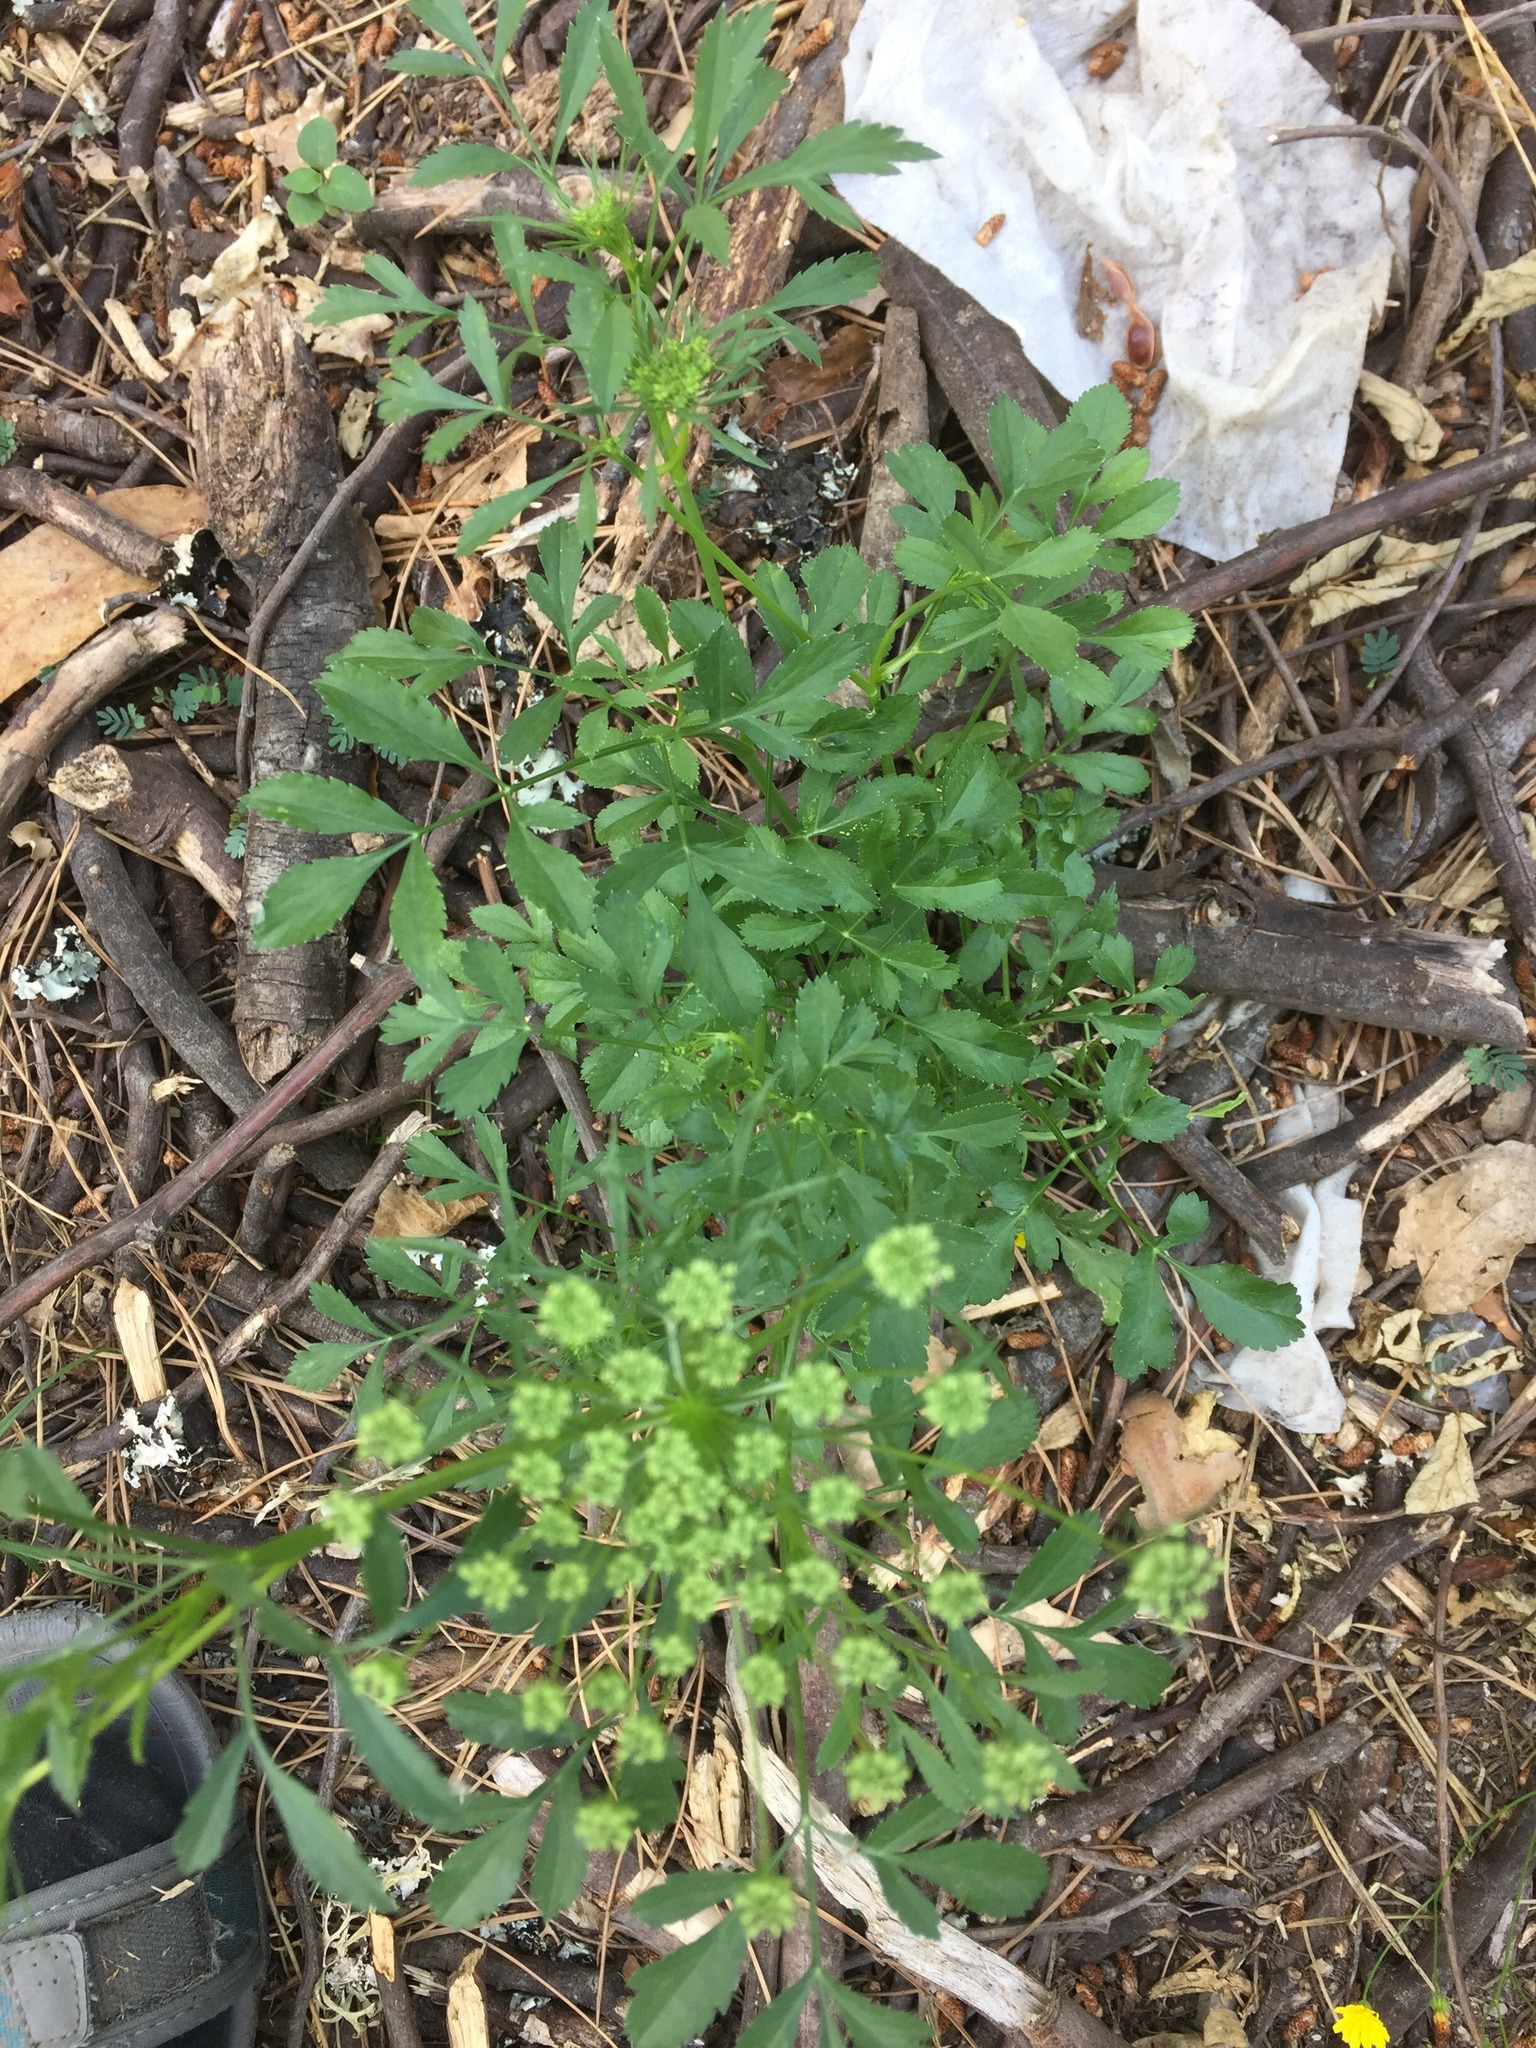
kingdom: Plantae
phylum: Tracheophyta
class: Magnoliopsida
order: Apiales
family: Apiaceae
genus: Ammi
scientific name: Ammi majus
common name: Bullwort
